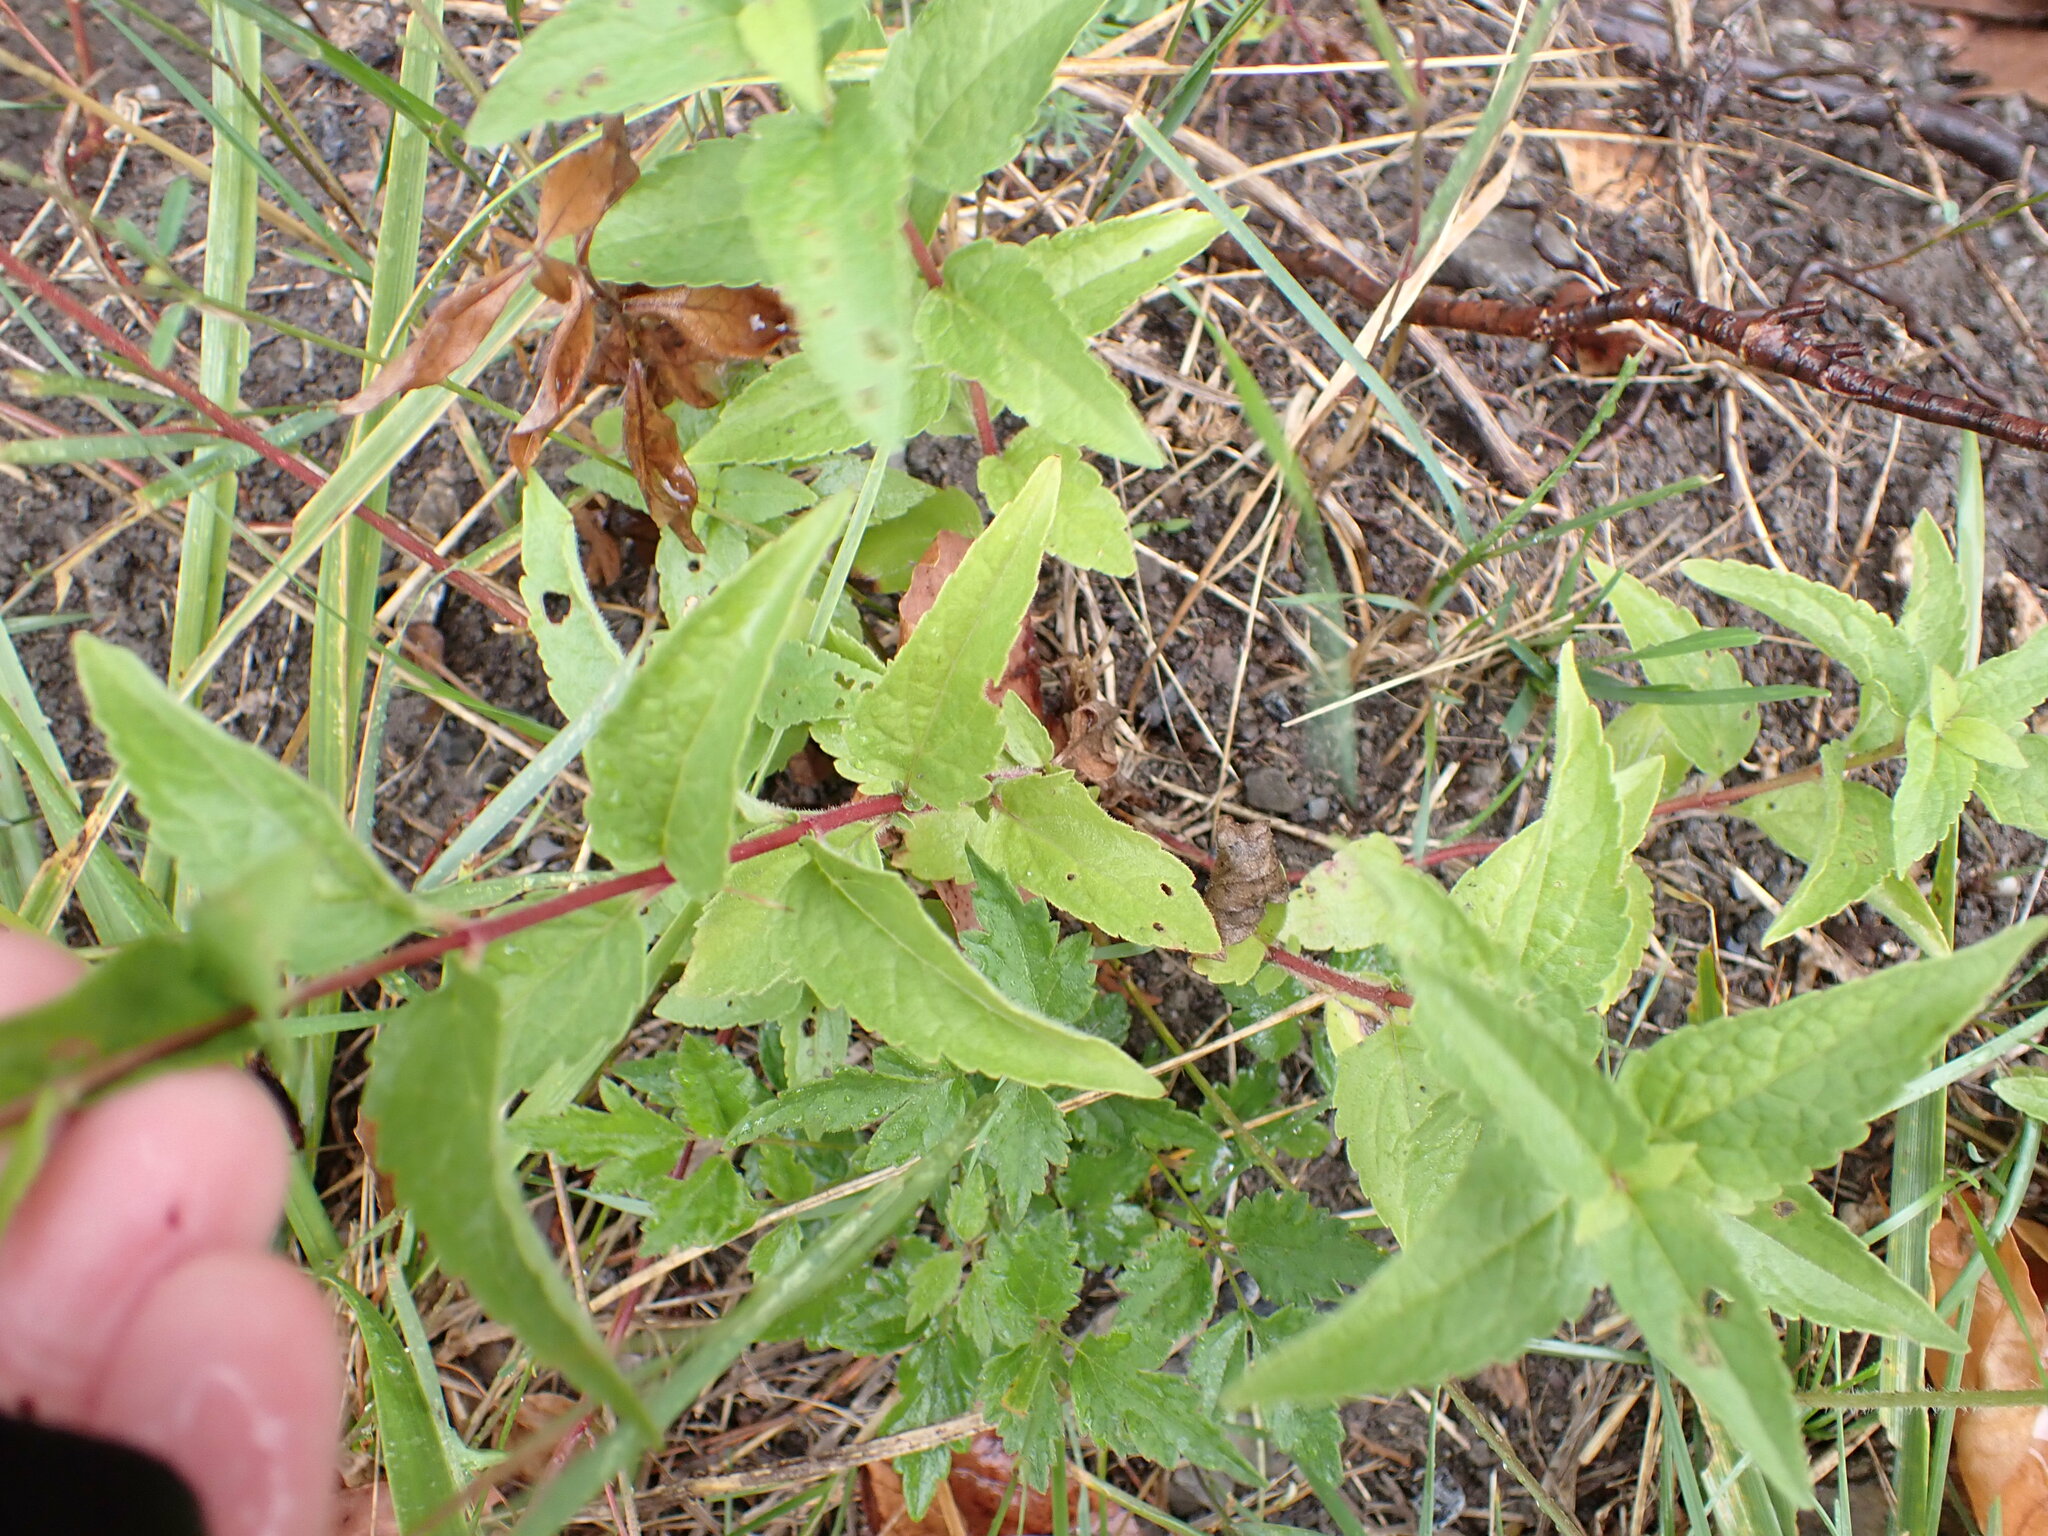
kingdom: Plantae
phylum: Tracheophyta
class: Magnoliopsida
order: Asterales
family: Asteraceae
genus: Eupatorium
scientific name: Eupatorium cannabinum
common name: Hemp-agrimony
